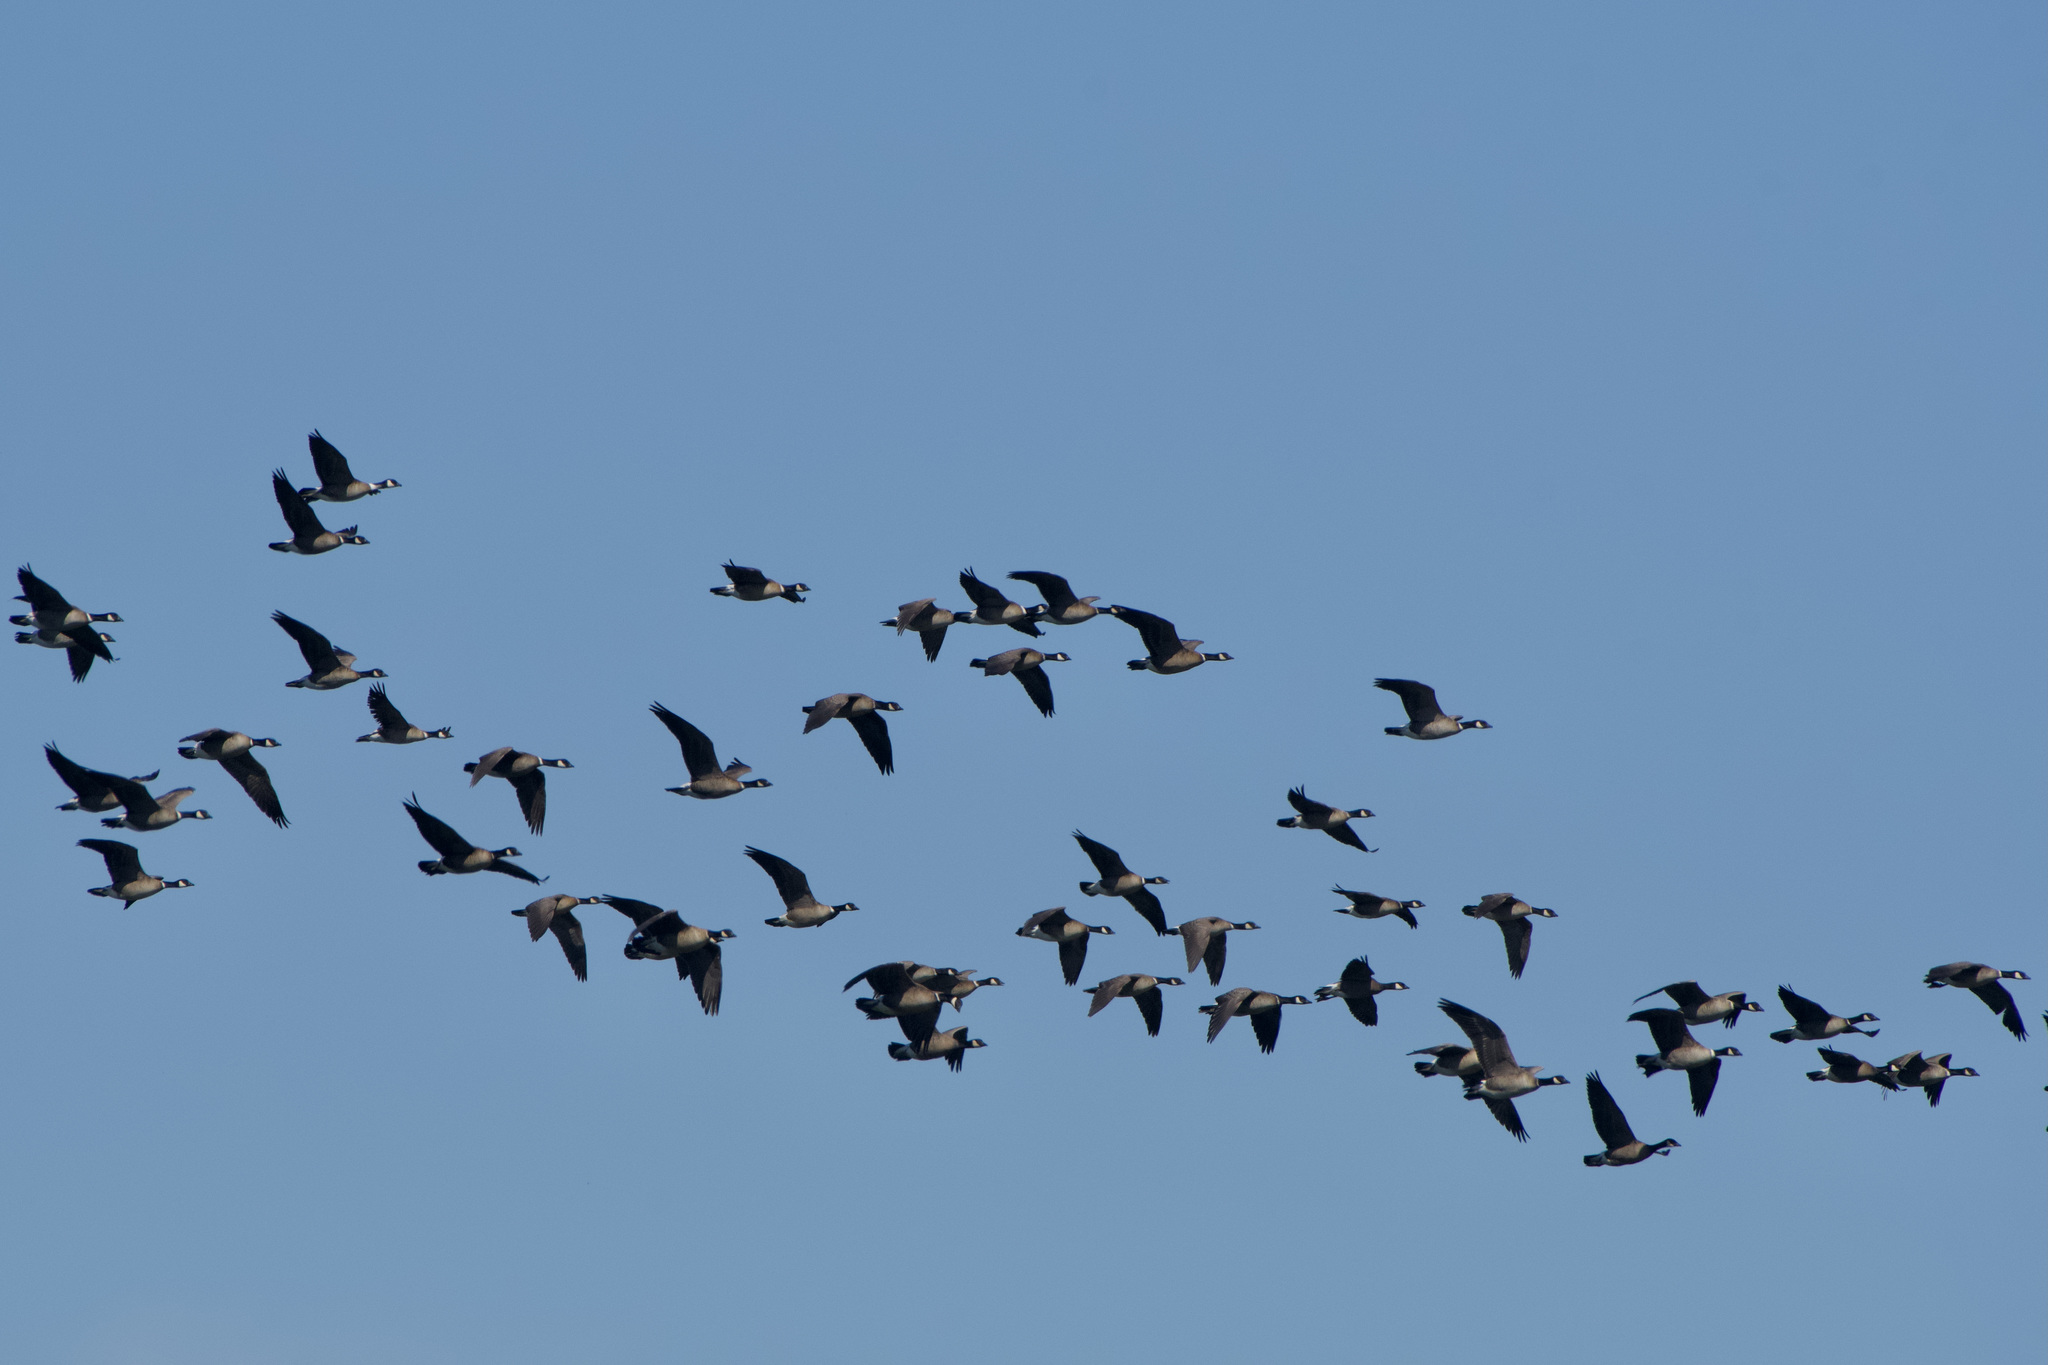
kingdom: Animalia
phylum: Chordata
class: Aves
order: Anseriformes
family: Anatidae
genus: Branta
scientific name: Branta hutchinsii
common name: Cackling goose
